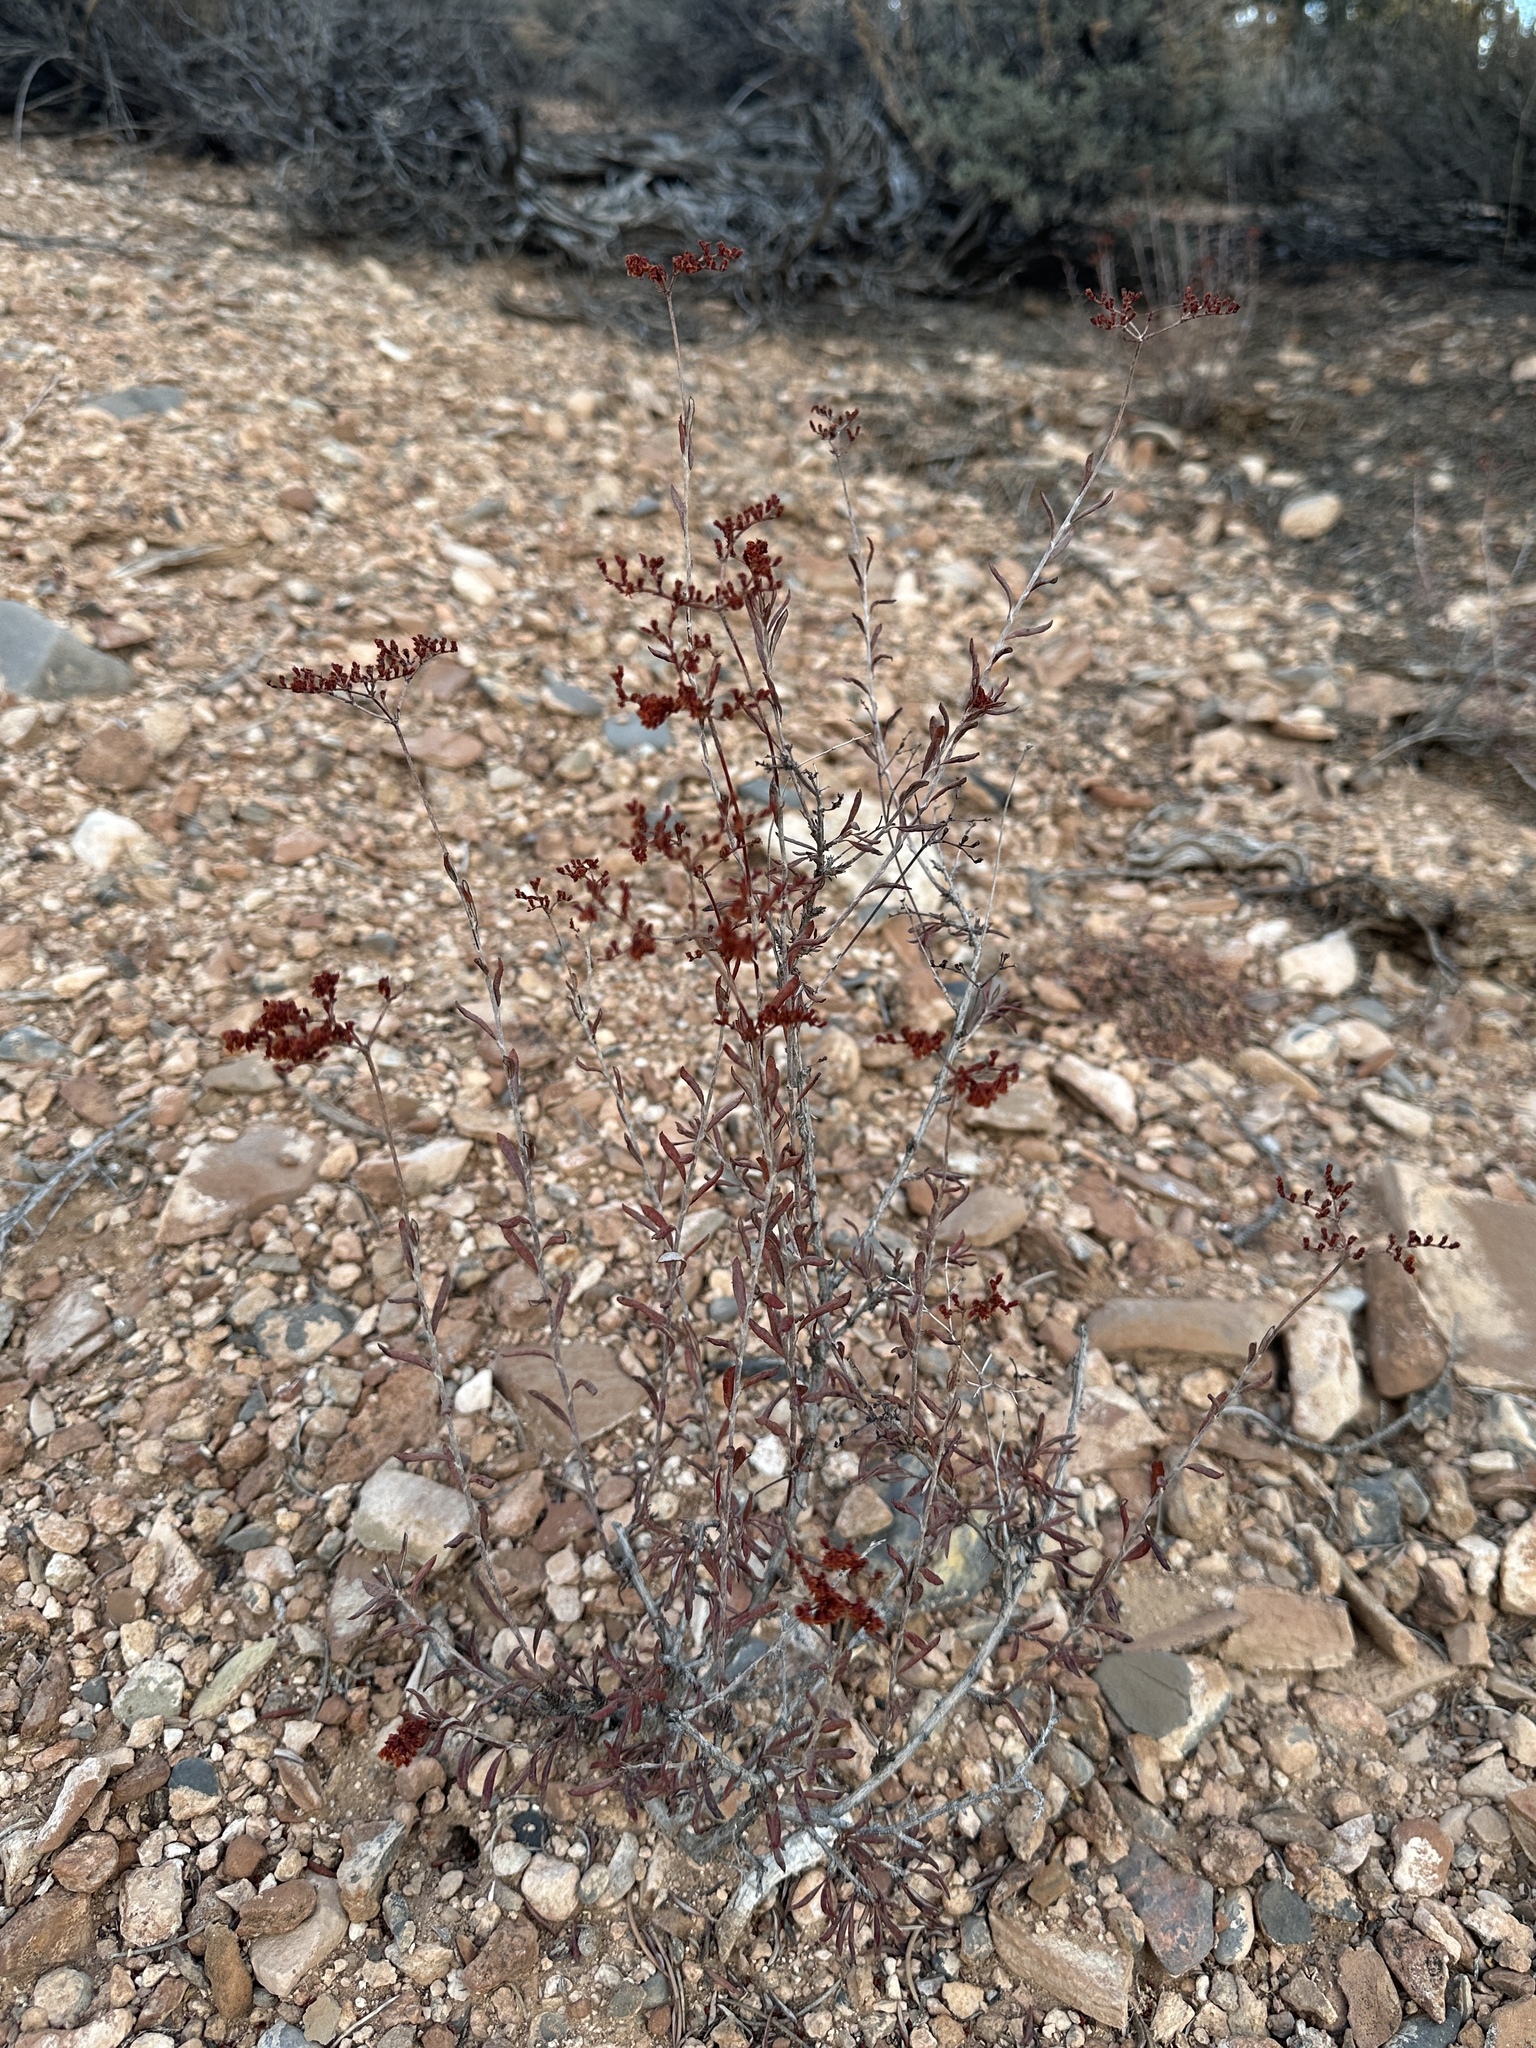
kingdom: Plantae
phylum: Tracheophyta
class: Magnoliopsida
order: Caryophyllales
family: Polygonaceae
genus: Eriogonum
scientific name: Eriogonum microtheca
